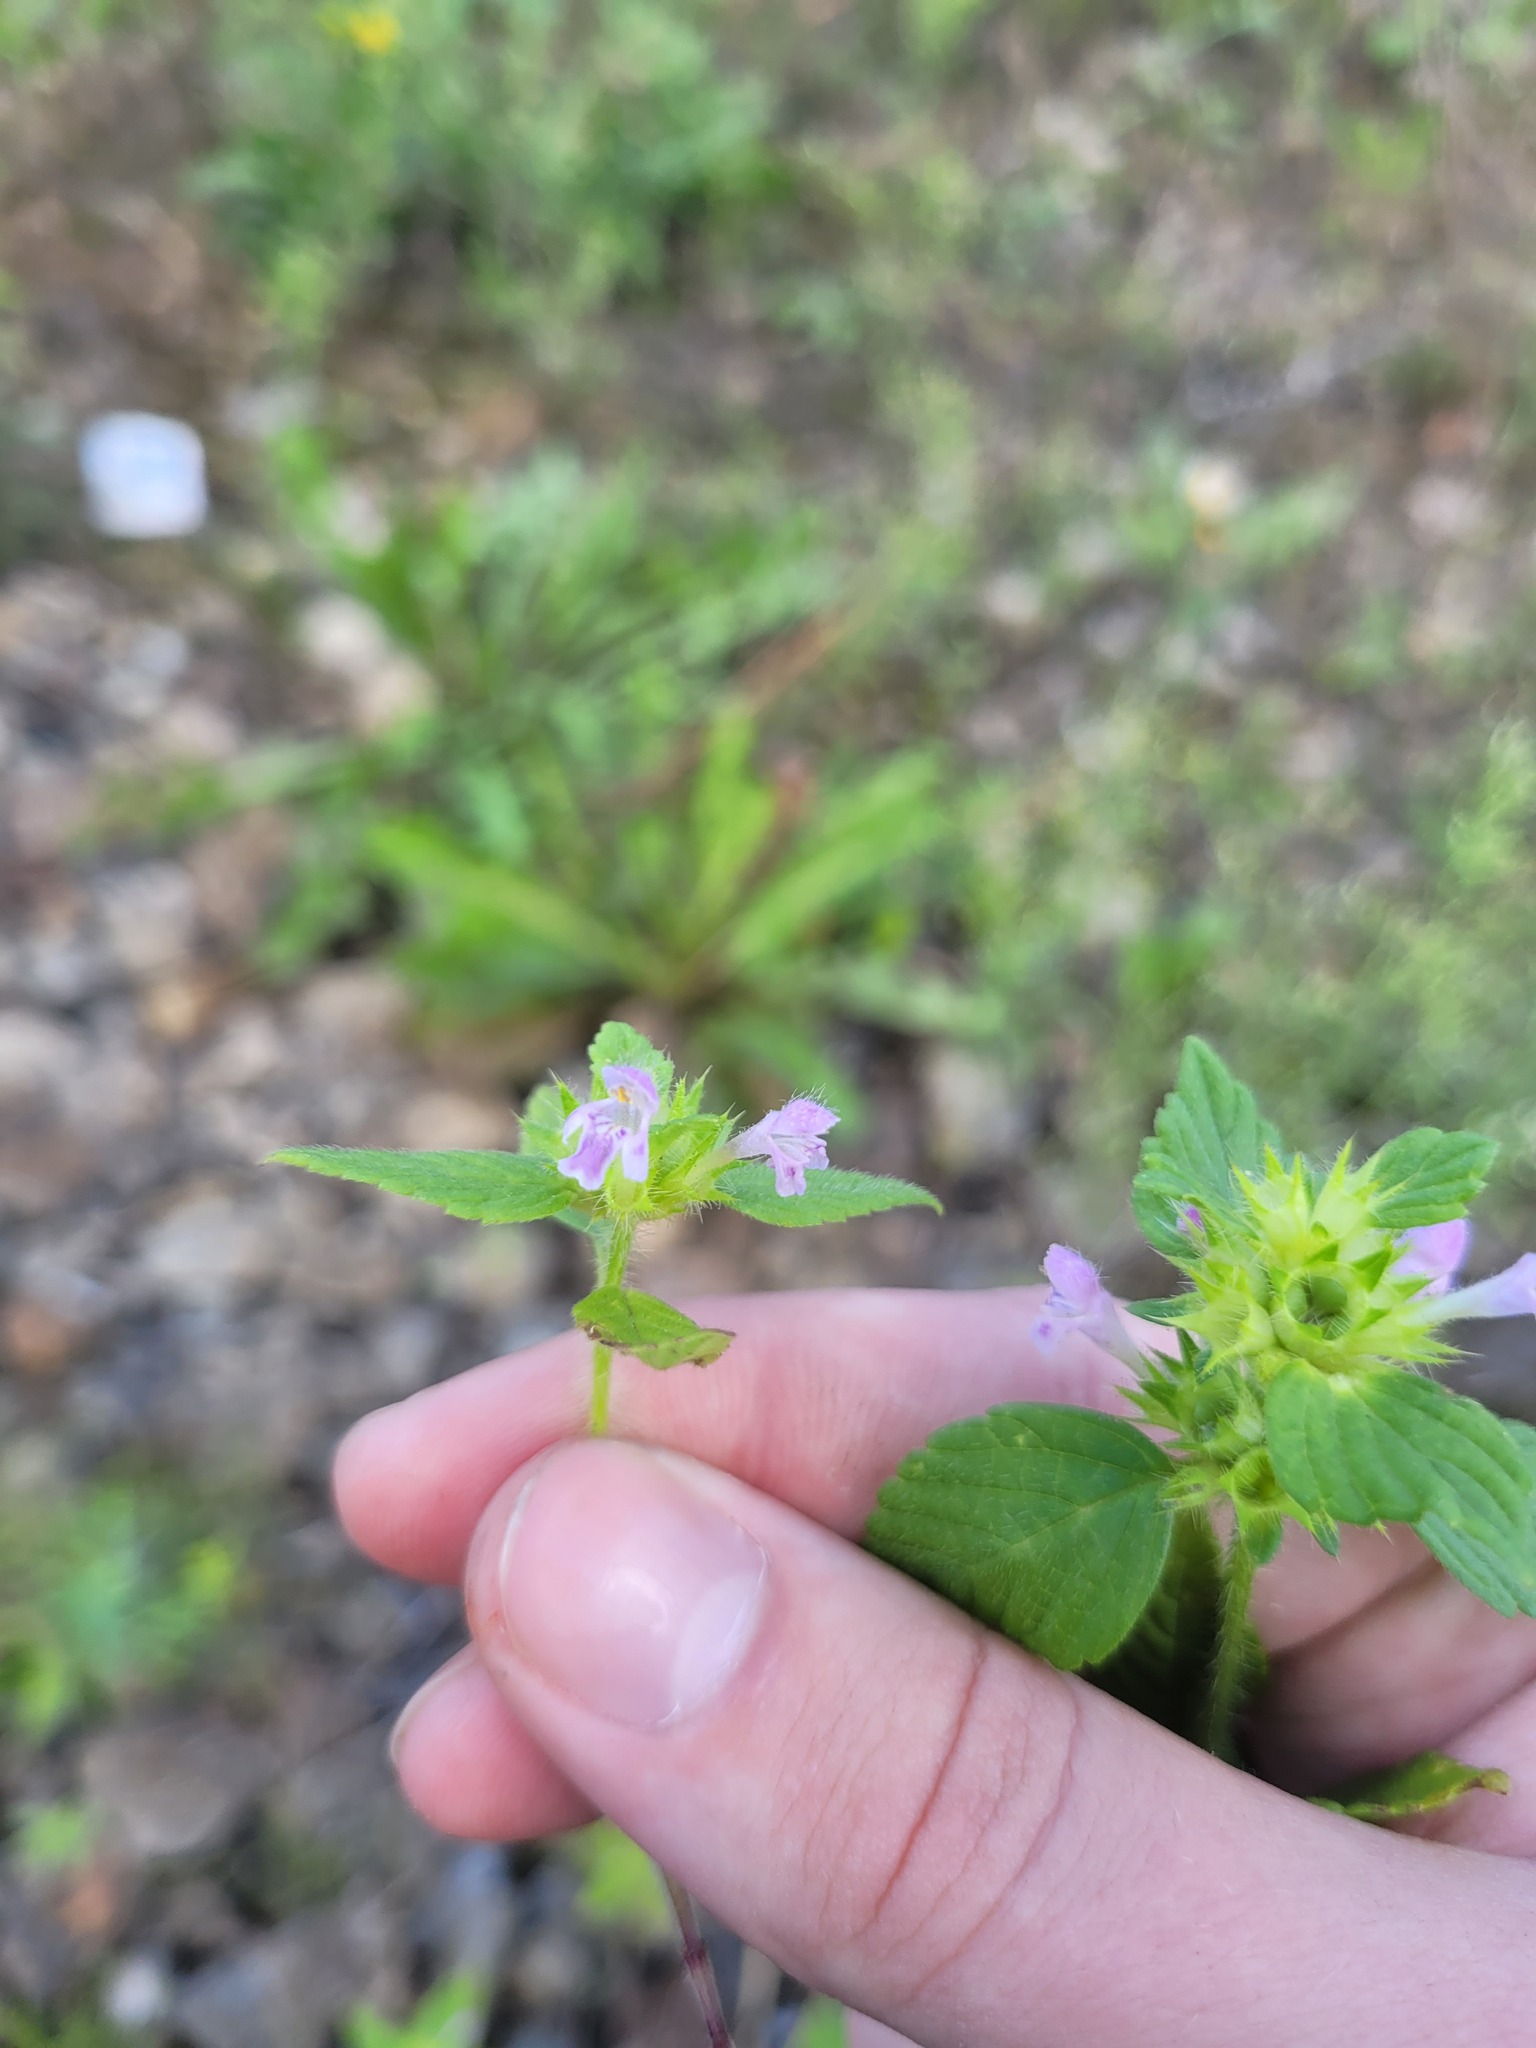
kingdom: Plantae
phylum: Tracheophyta
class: Magnoliopsida
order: Lamiales
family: Lamiaceae
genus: Galeopsis
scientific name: Galeopsis bifida
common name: Bifid hemp-nettle
